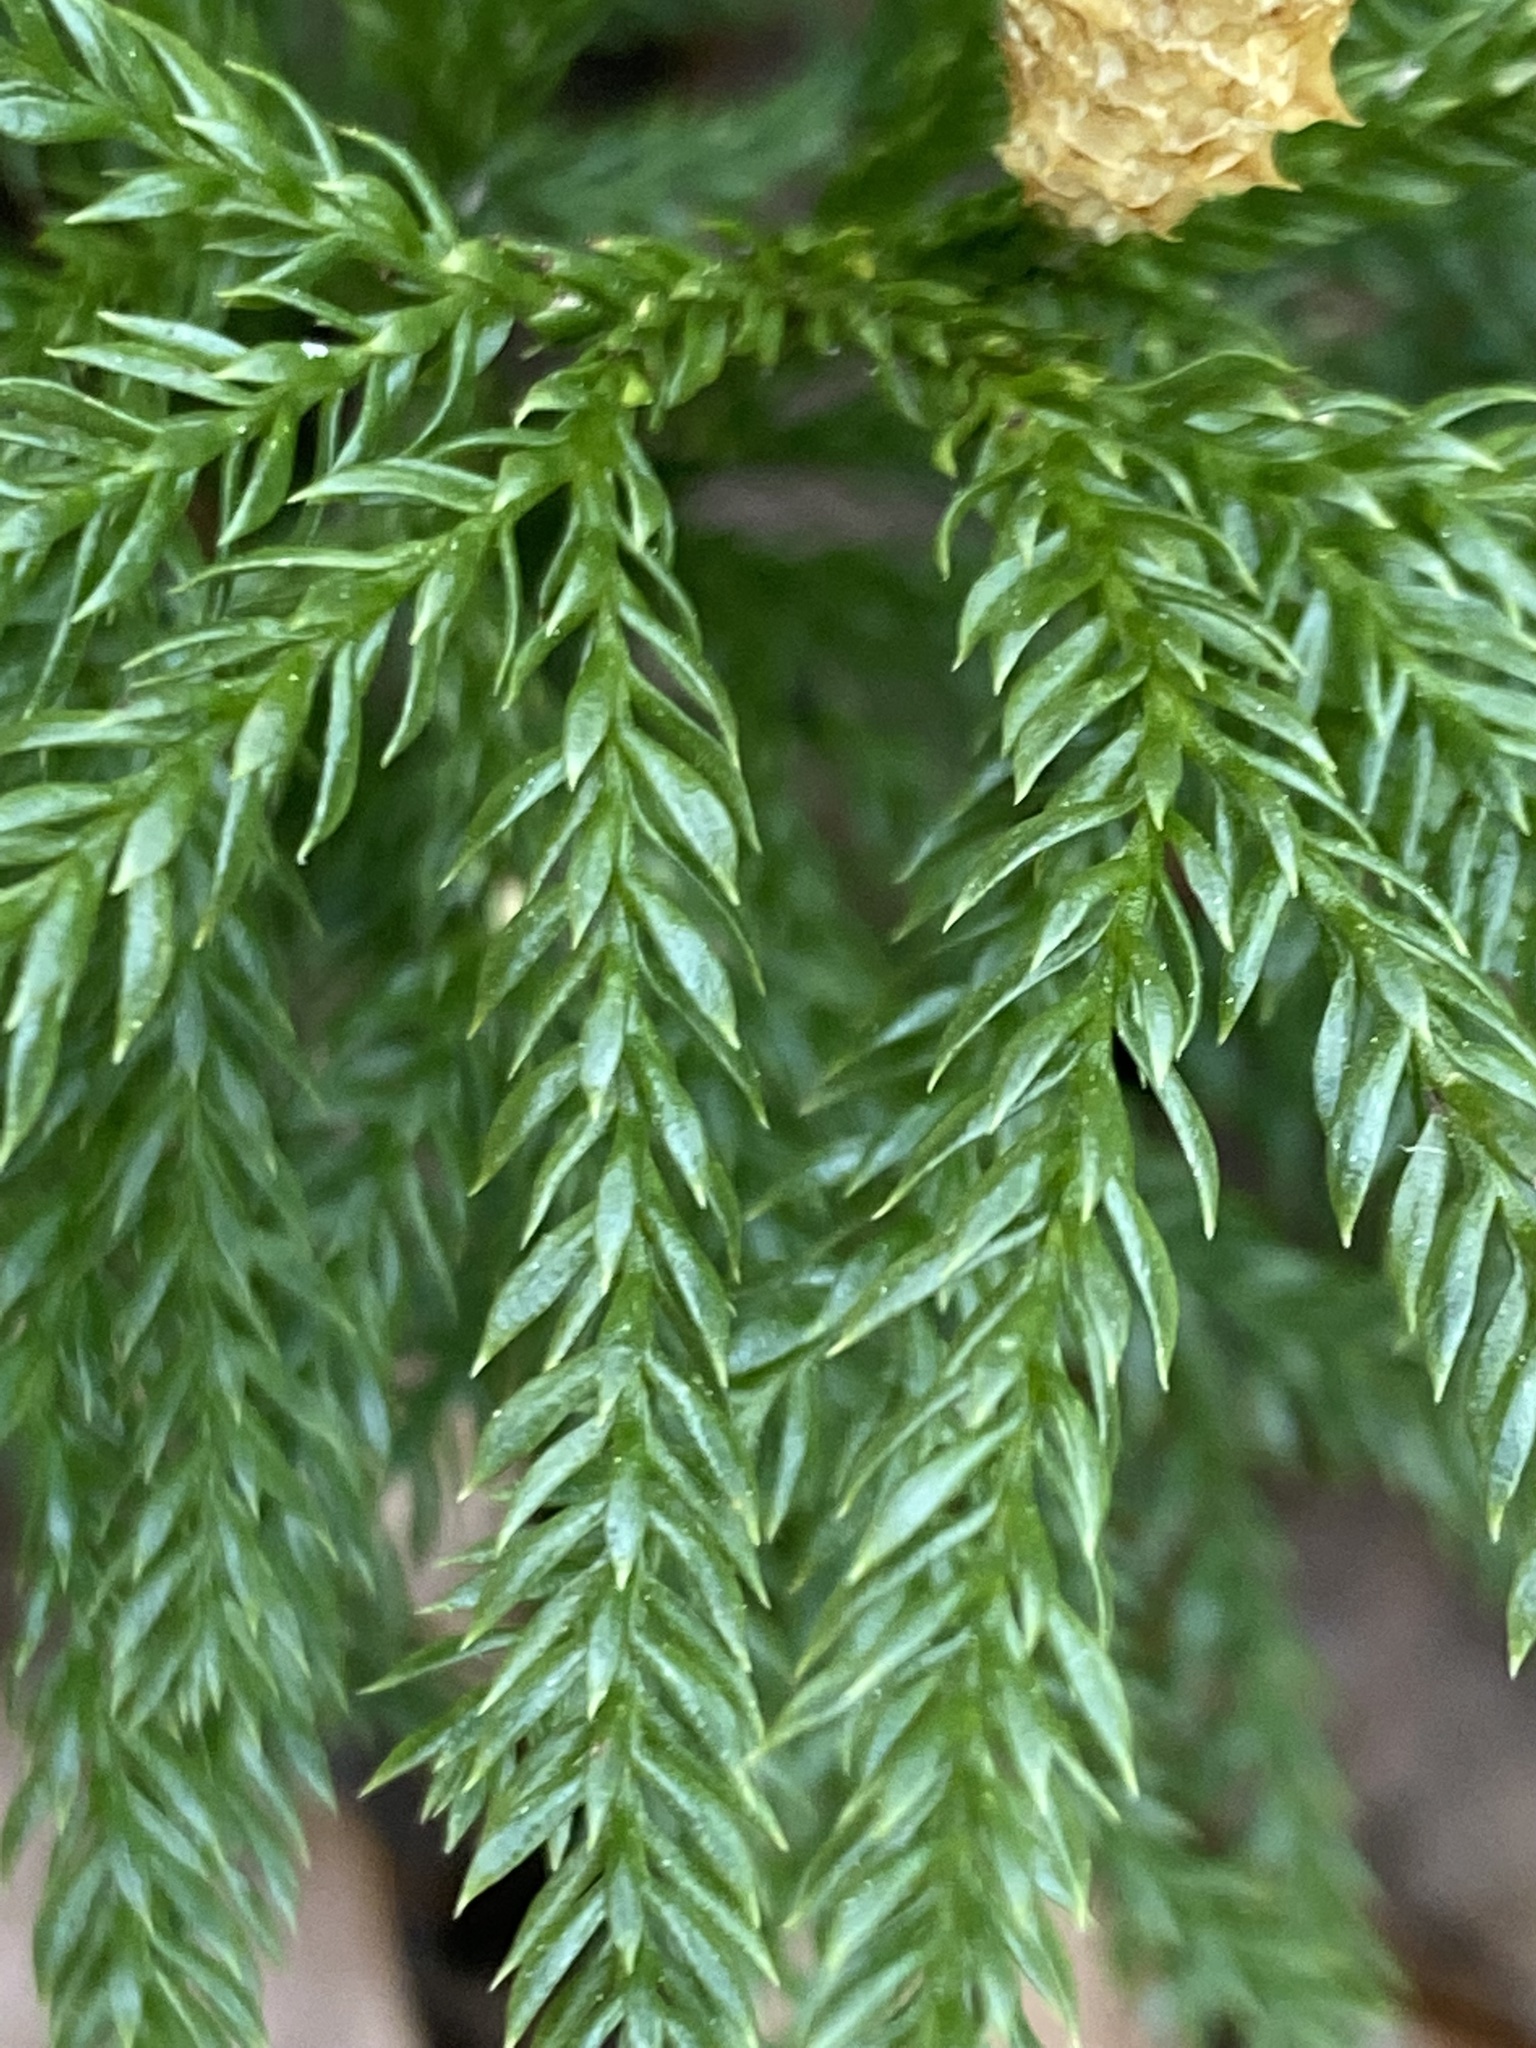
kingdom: Plantae
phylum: Tracheophyta
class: Lycopodiopsida
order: Lycopodiales
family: Lycopodiaceae
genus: Dendrolycopodium
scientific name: Dendrolycopodium obscurum
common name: Common ground-pine
